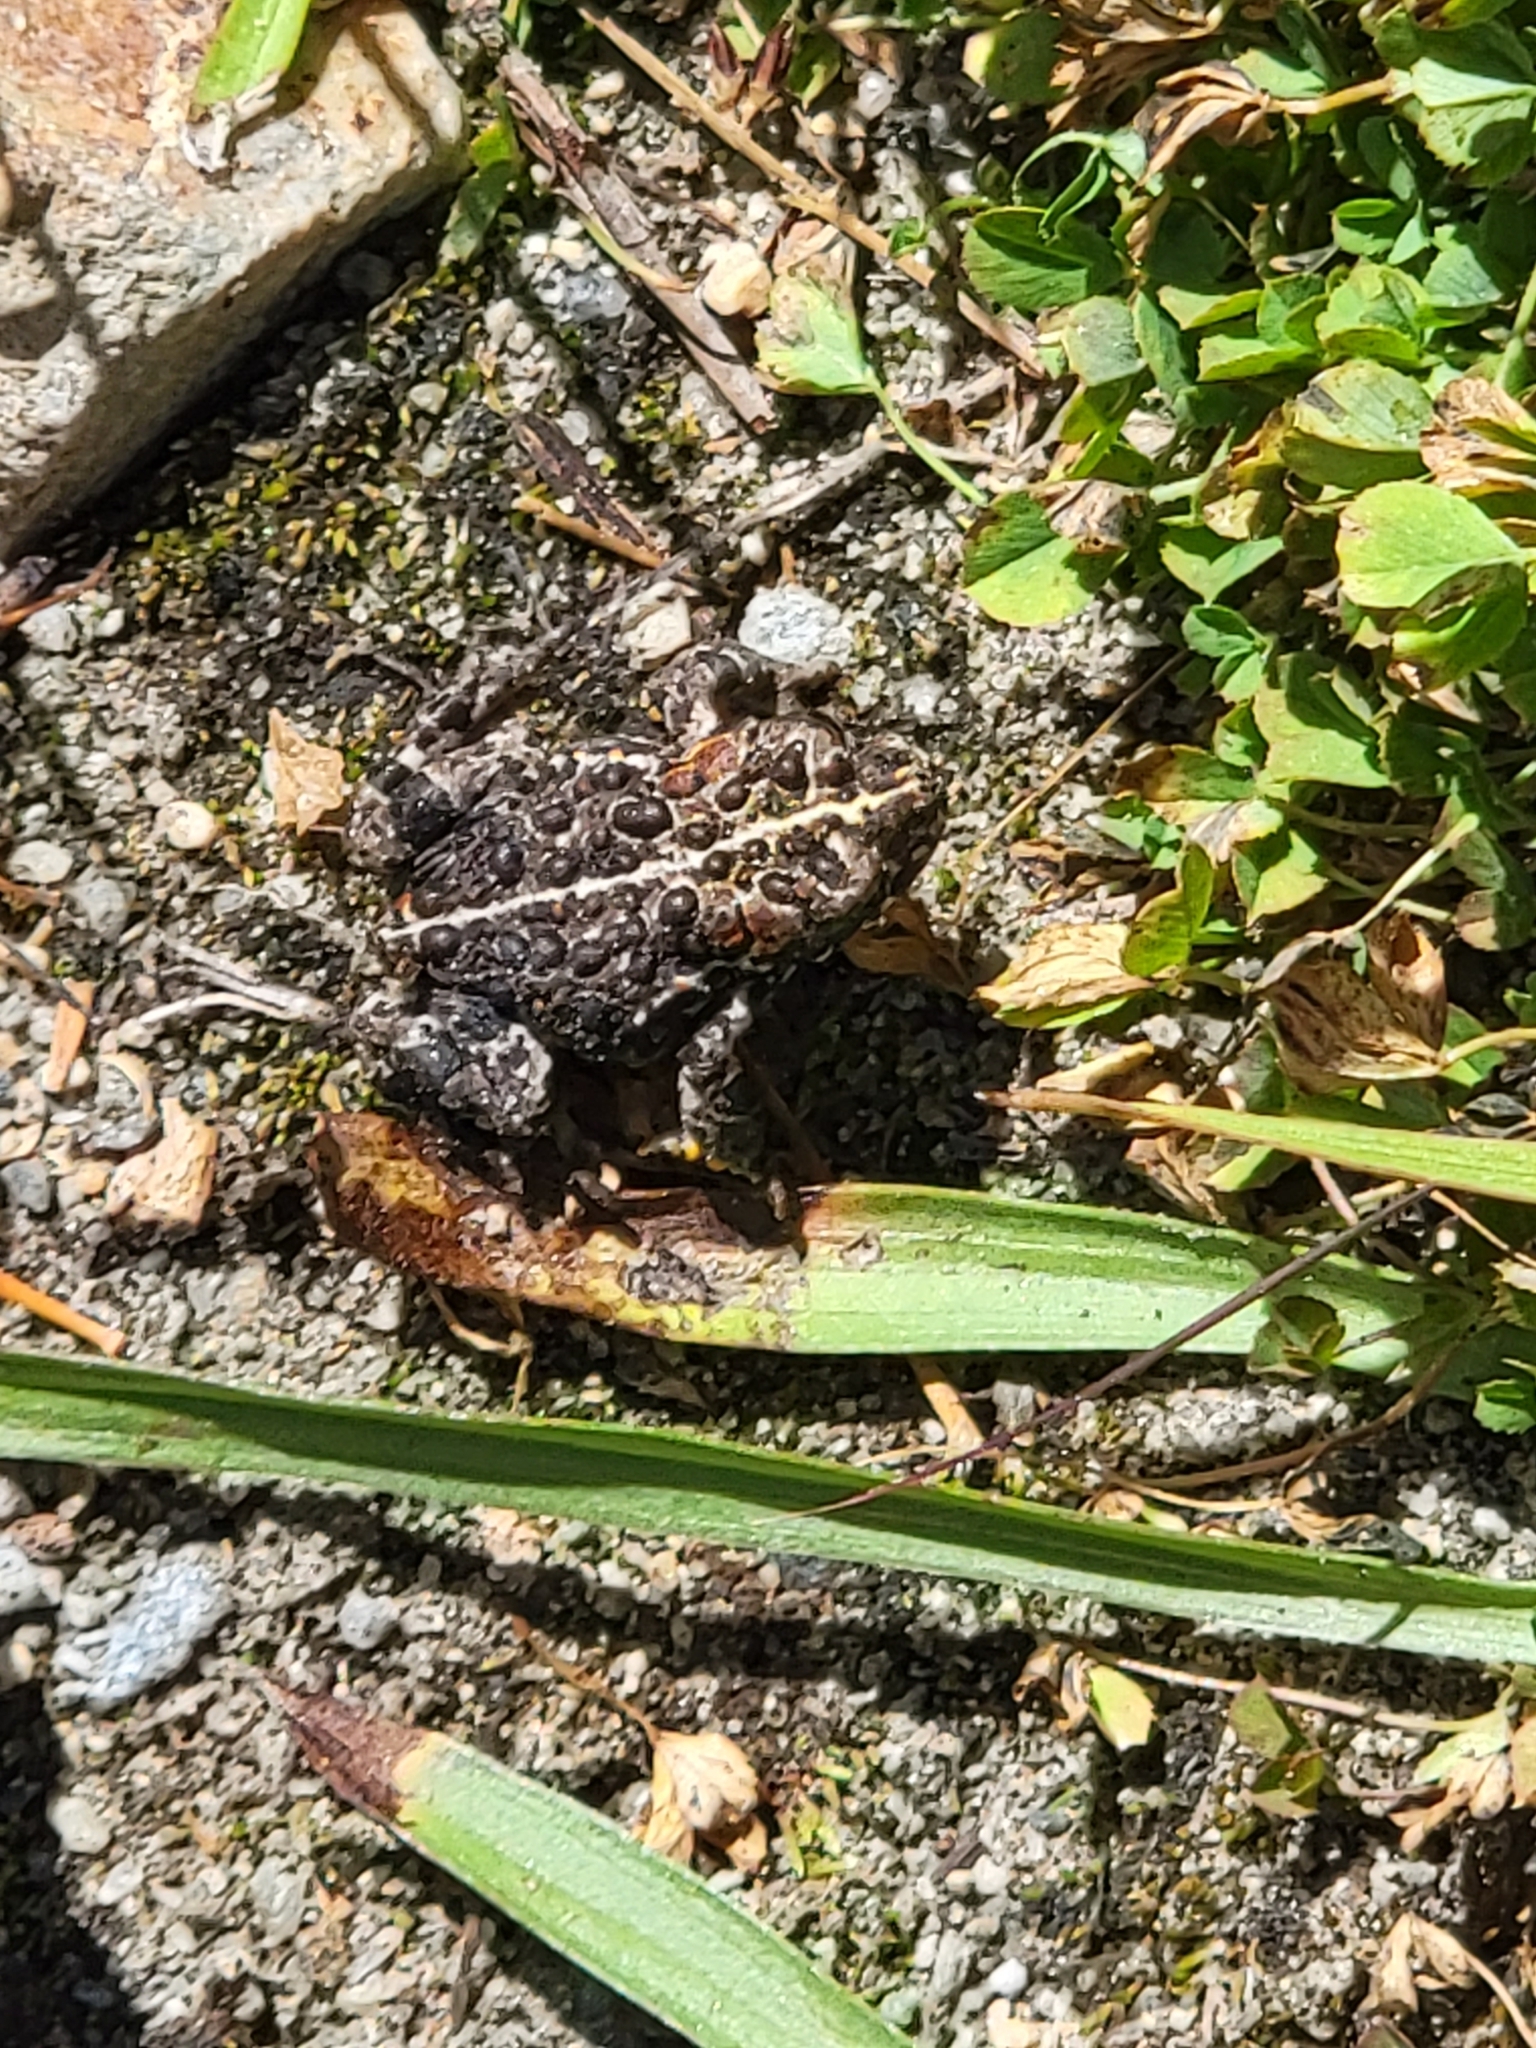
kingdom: Animalia
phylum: Chordata
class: Amphibia
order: Anura
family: Bufonidae
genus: Anaxyrus
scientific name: Anaxyrus canorus
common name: Yosemite toad
